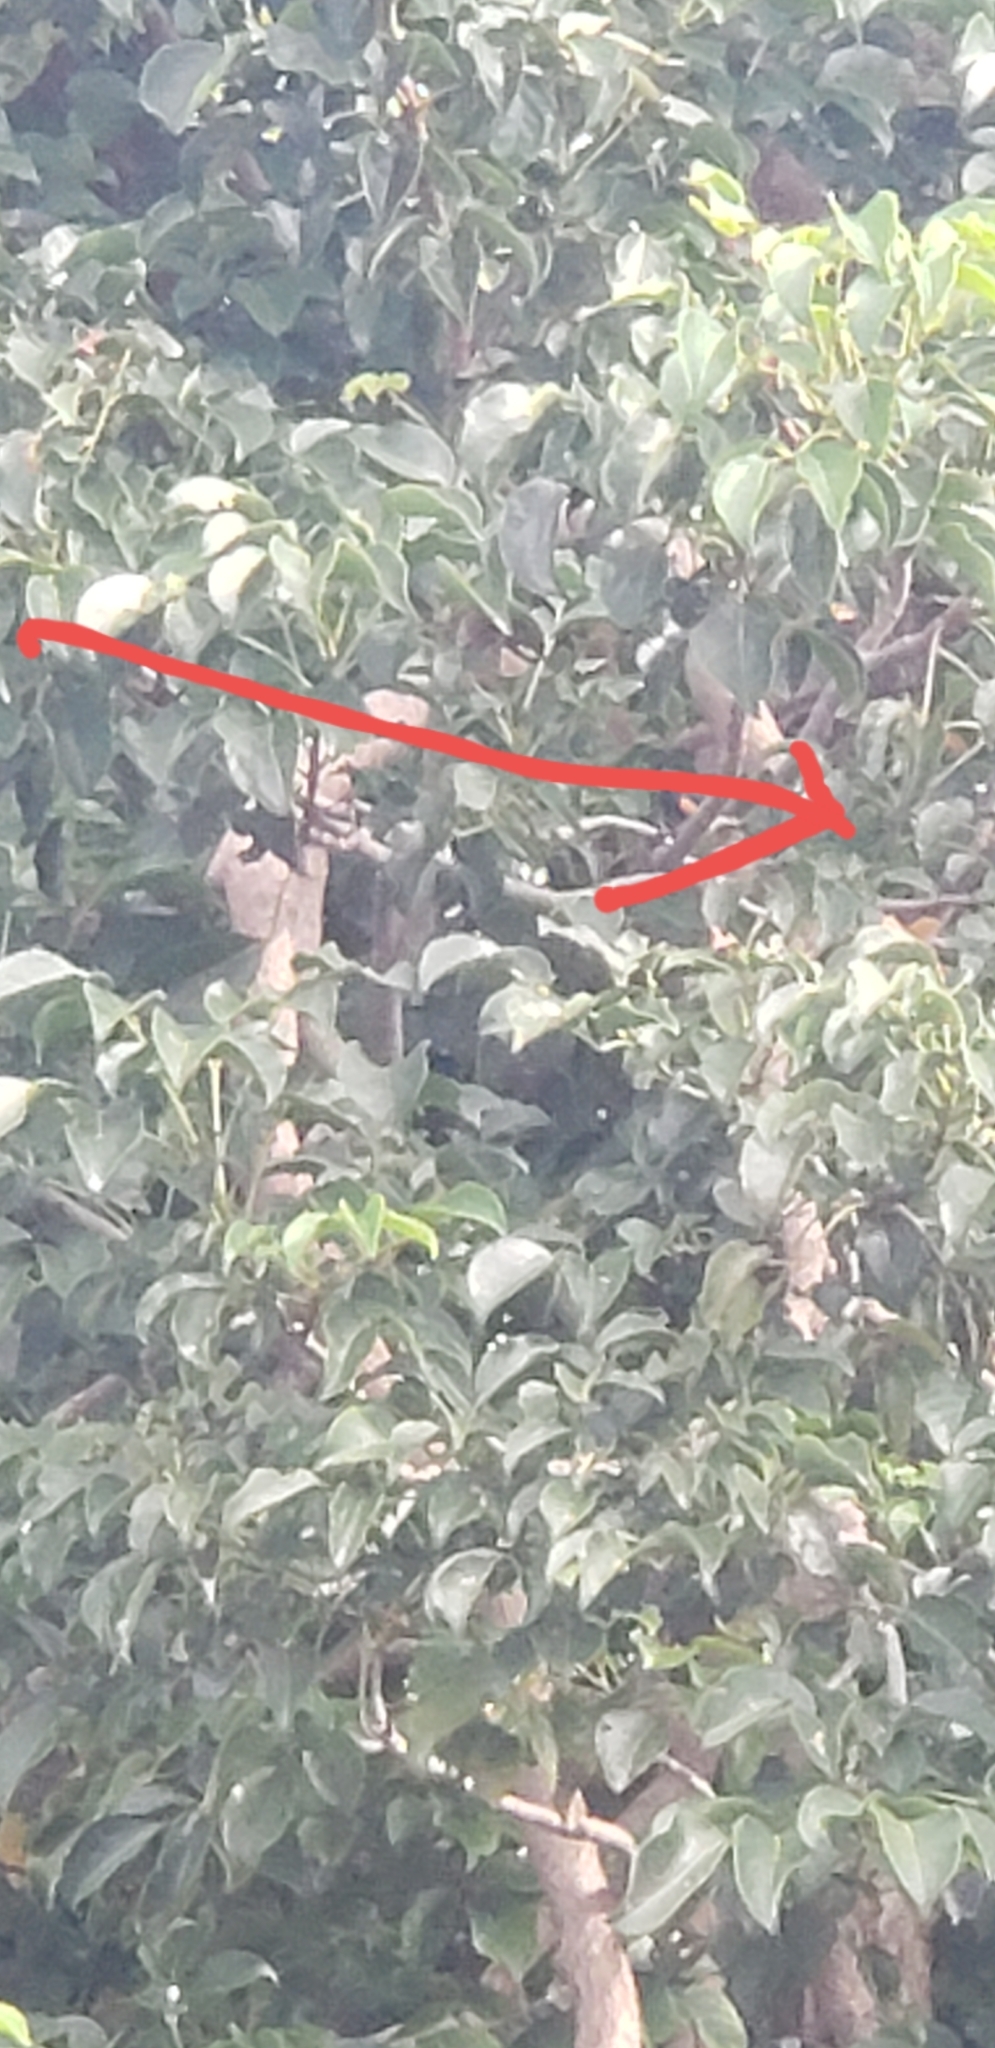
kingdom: Animalia
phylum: Chordata
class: Aves
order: Passeriformes
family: Parulidae
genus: Setophaga
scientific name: Setophaga ruticilla
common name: American redstart
